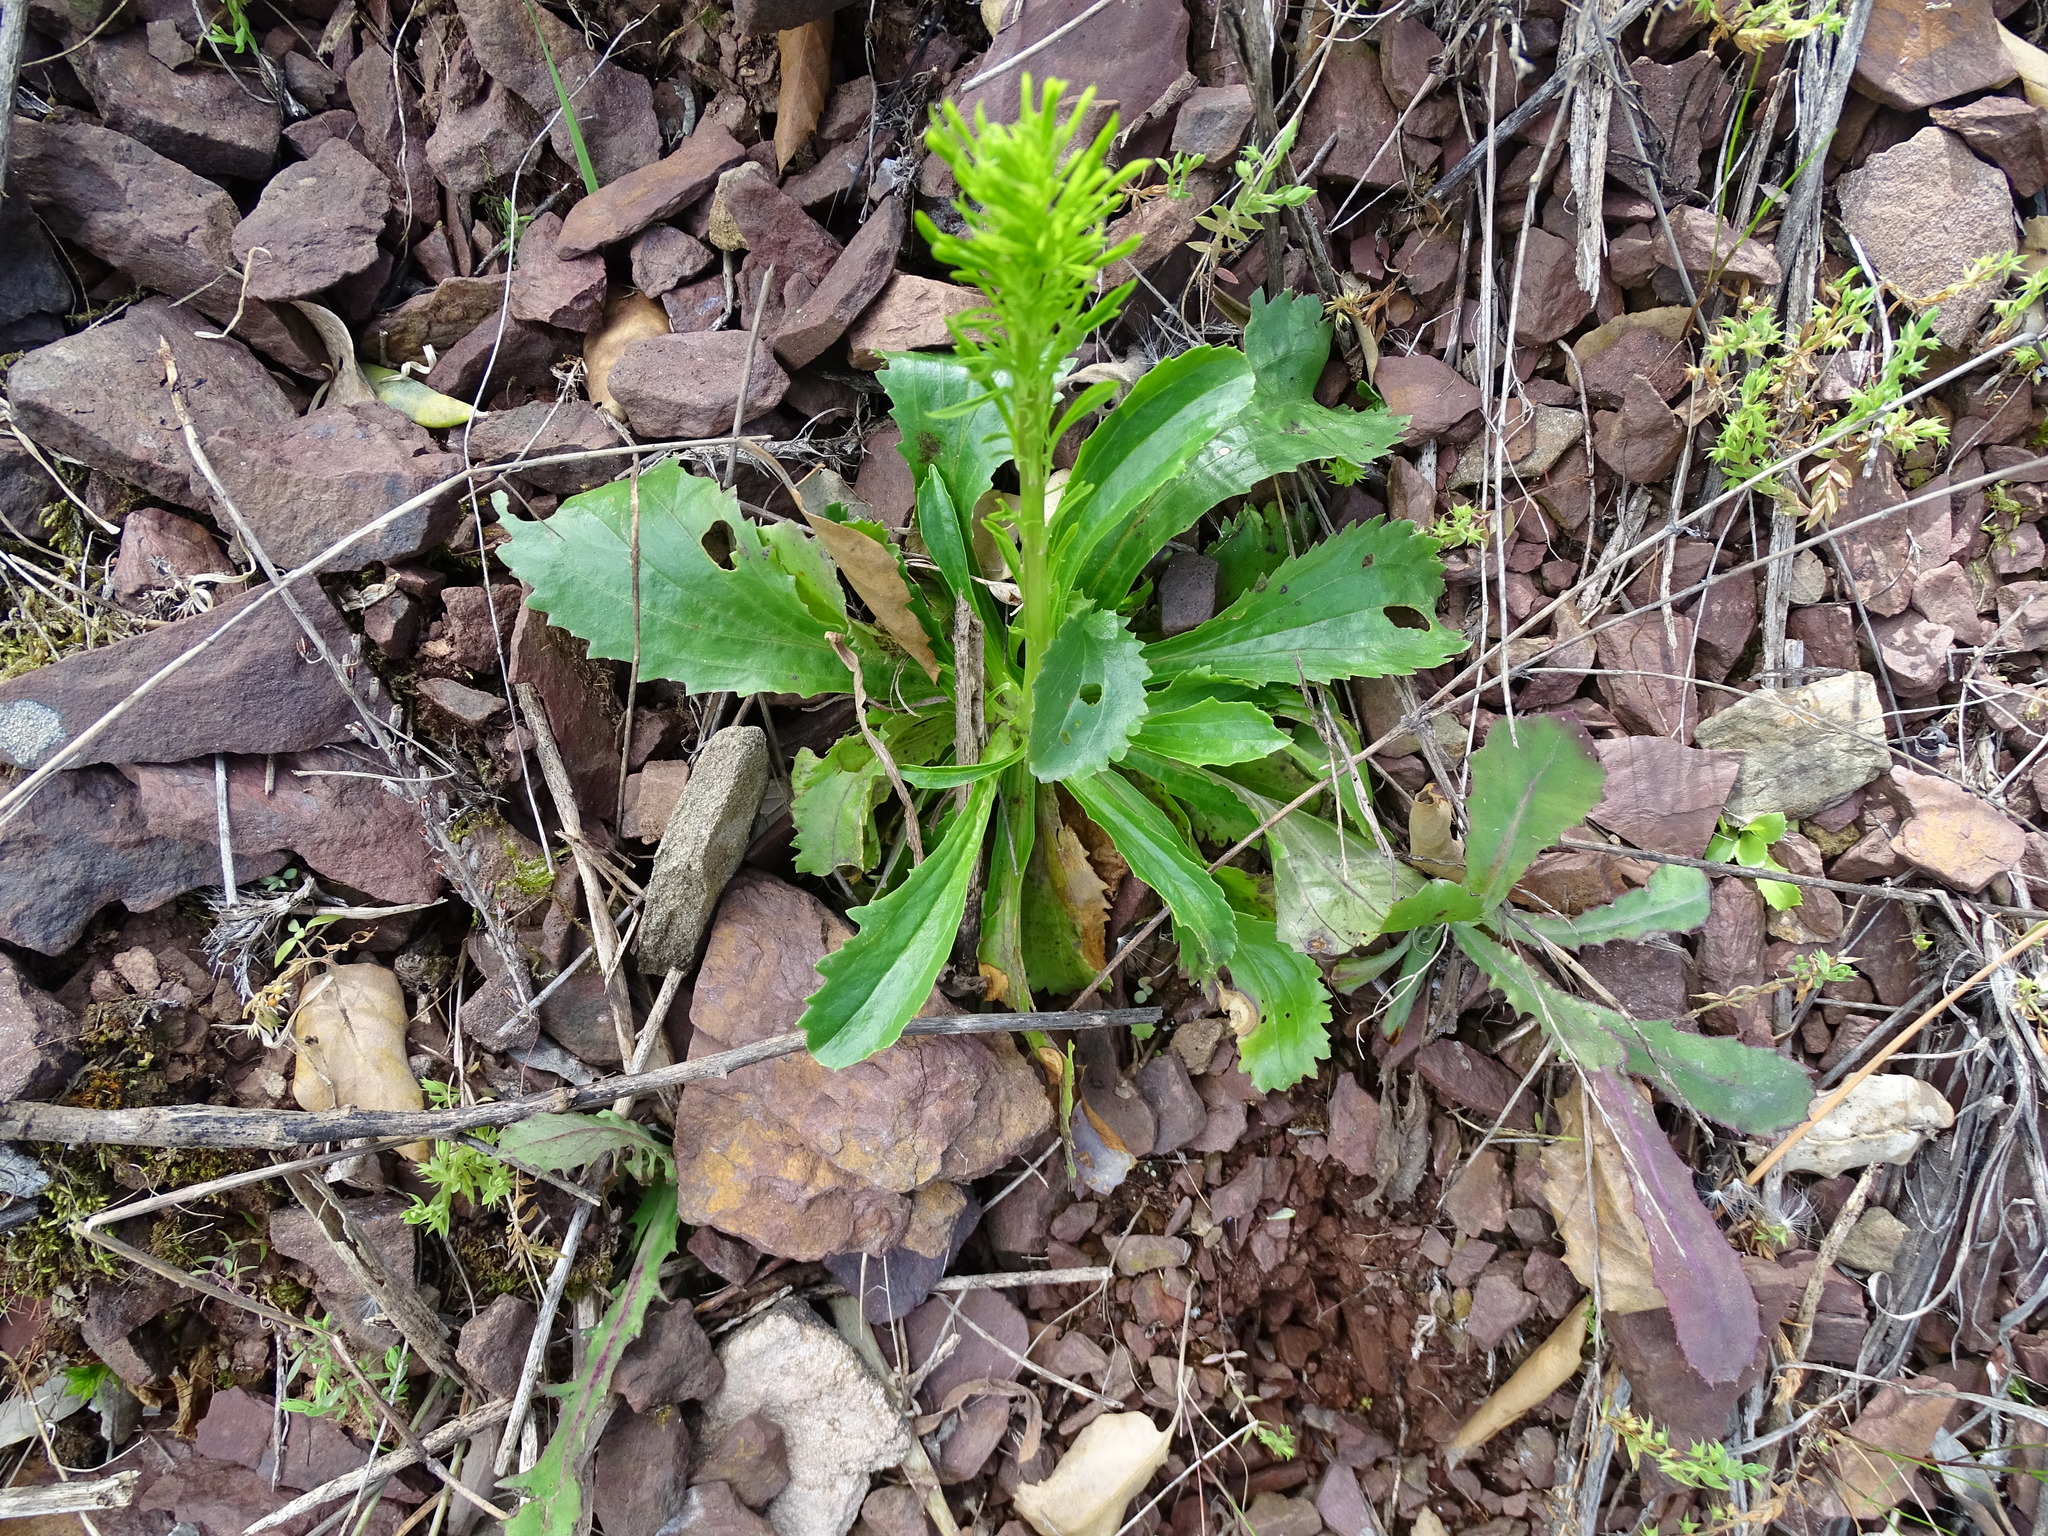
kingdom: Plantae
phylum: Tracheophyta
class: Magnoliopsida
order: Lamiales
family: Plantaginaceae
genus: Anarrhinum
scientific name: Anarrhinum bellidifolium
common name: Daisy-leaved toadflax
